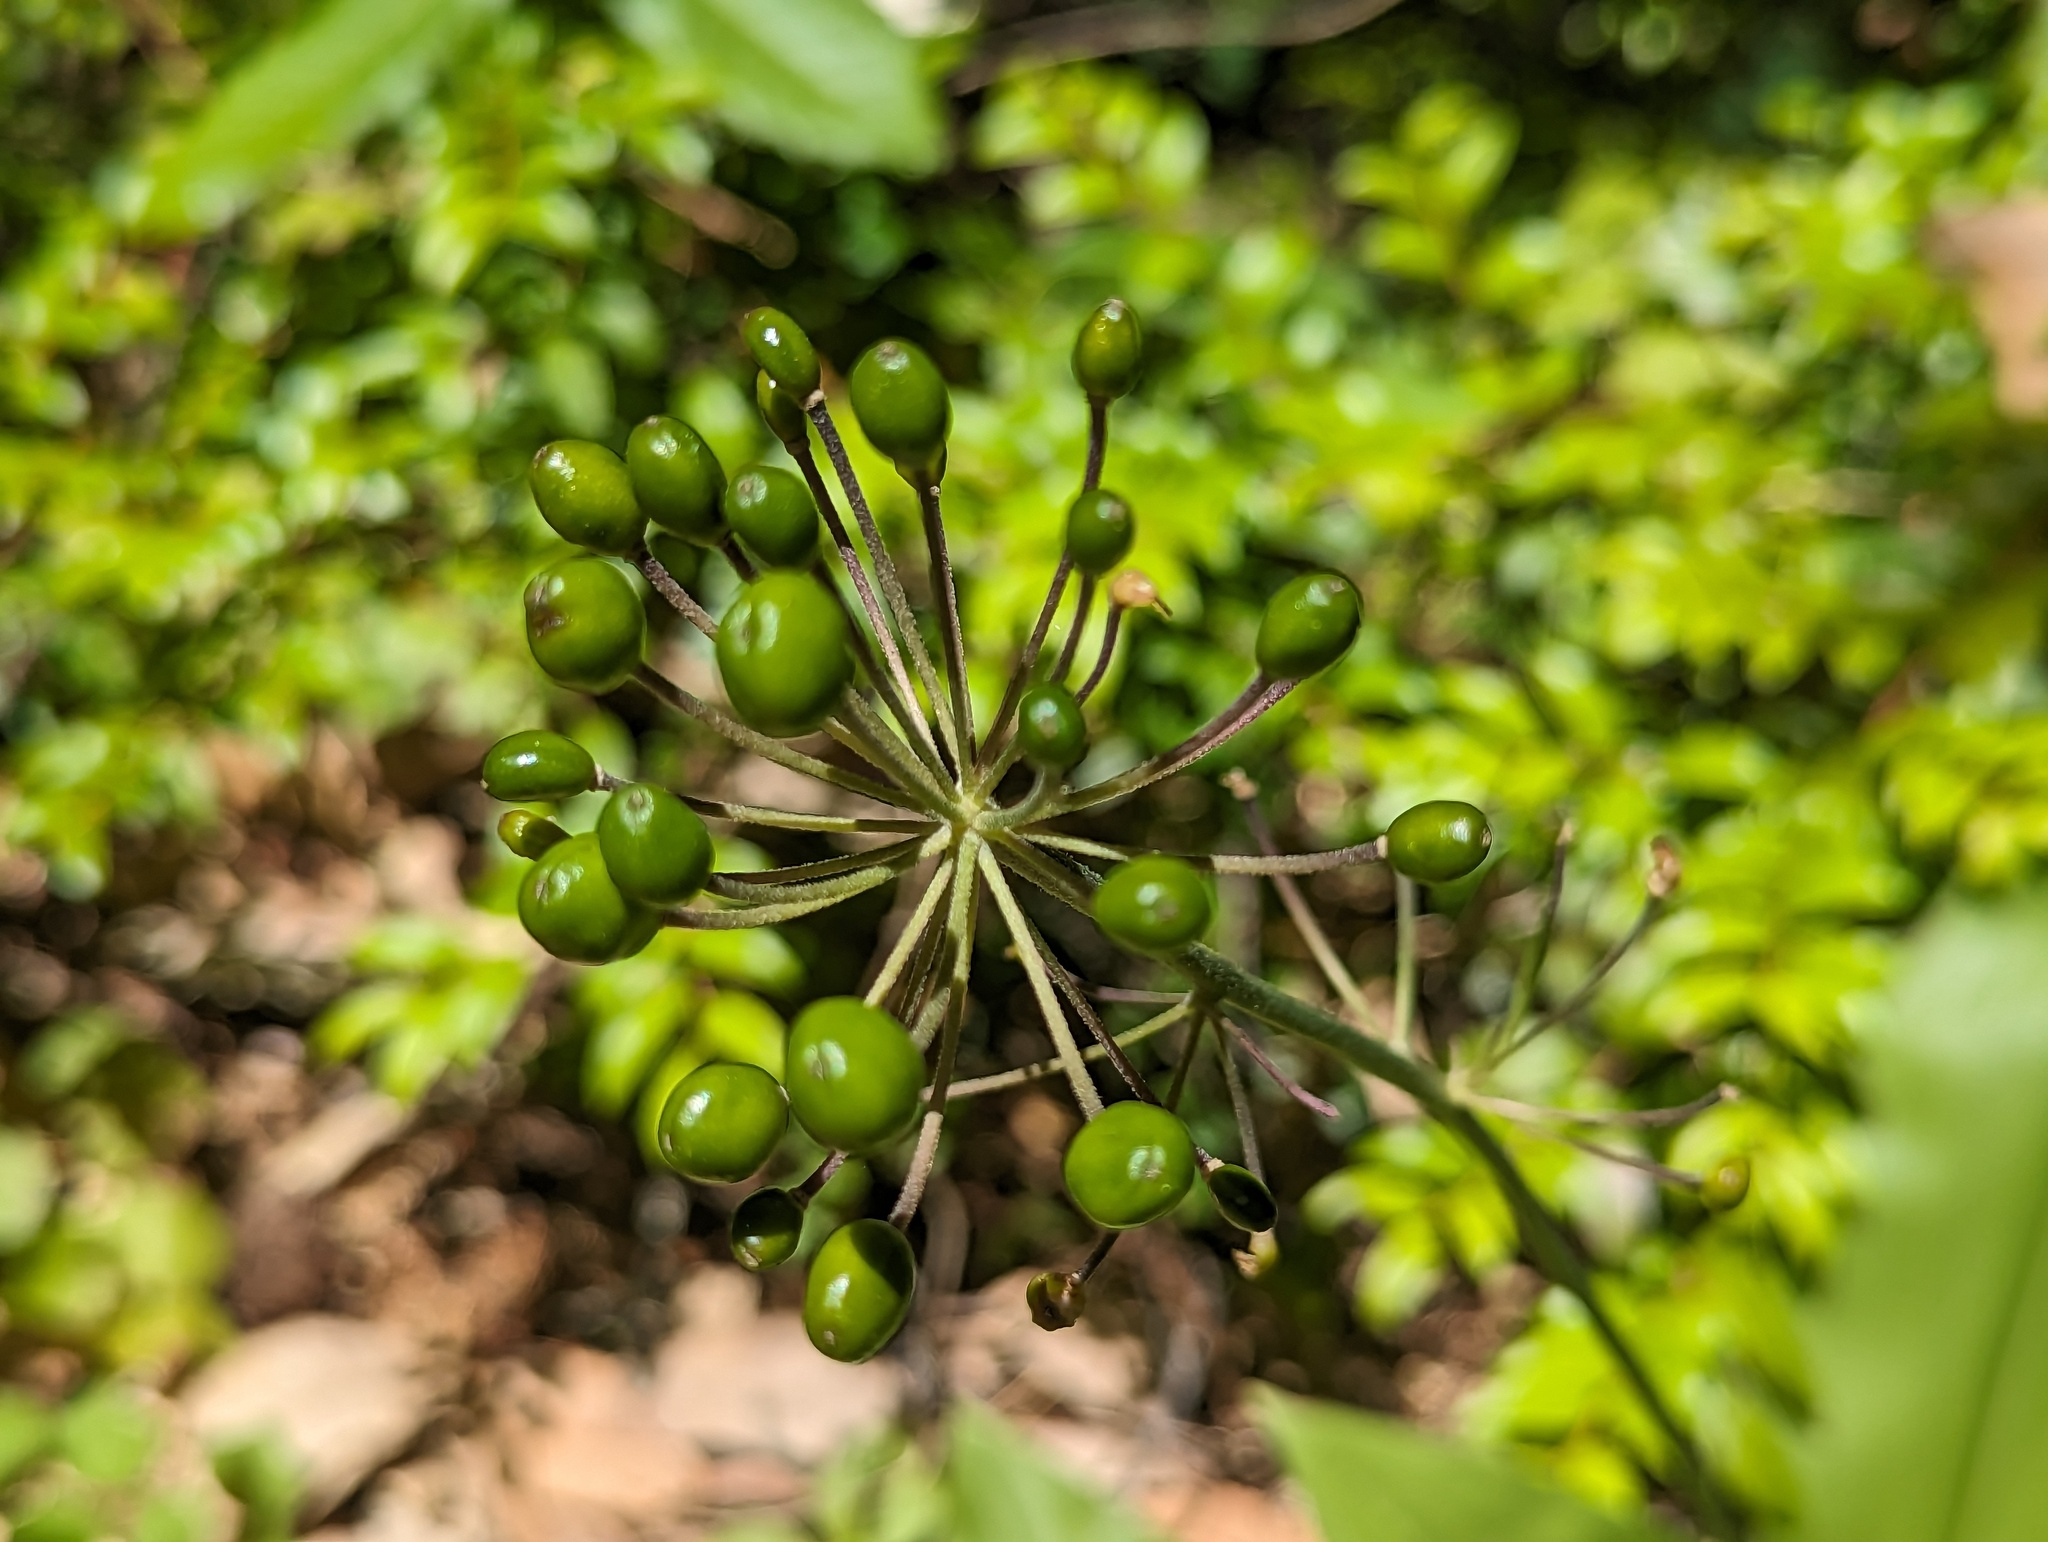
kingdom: Plantae
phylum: Tracheophyta
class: Liliopsida
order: Liliales
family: Liliaceae
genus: Clintonia
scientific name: Clintonia andrewsiana
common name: Red clintonia
